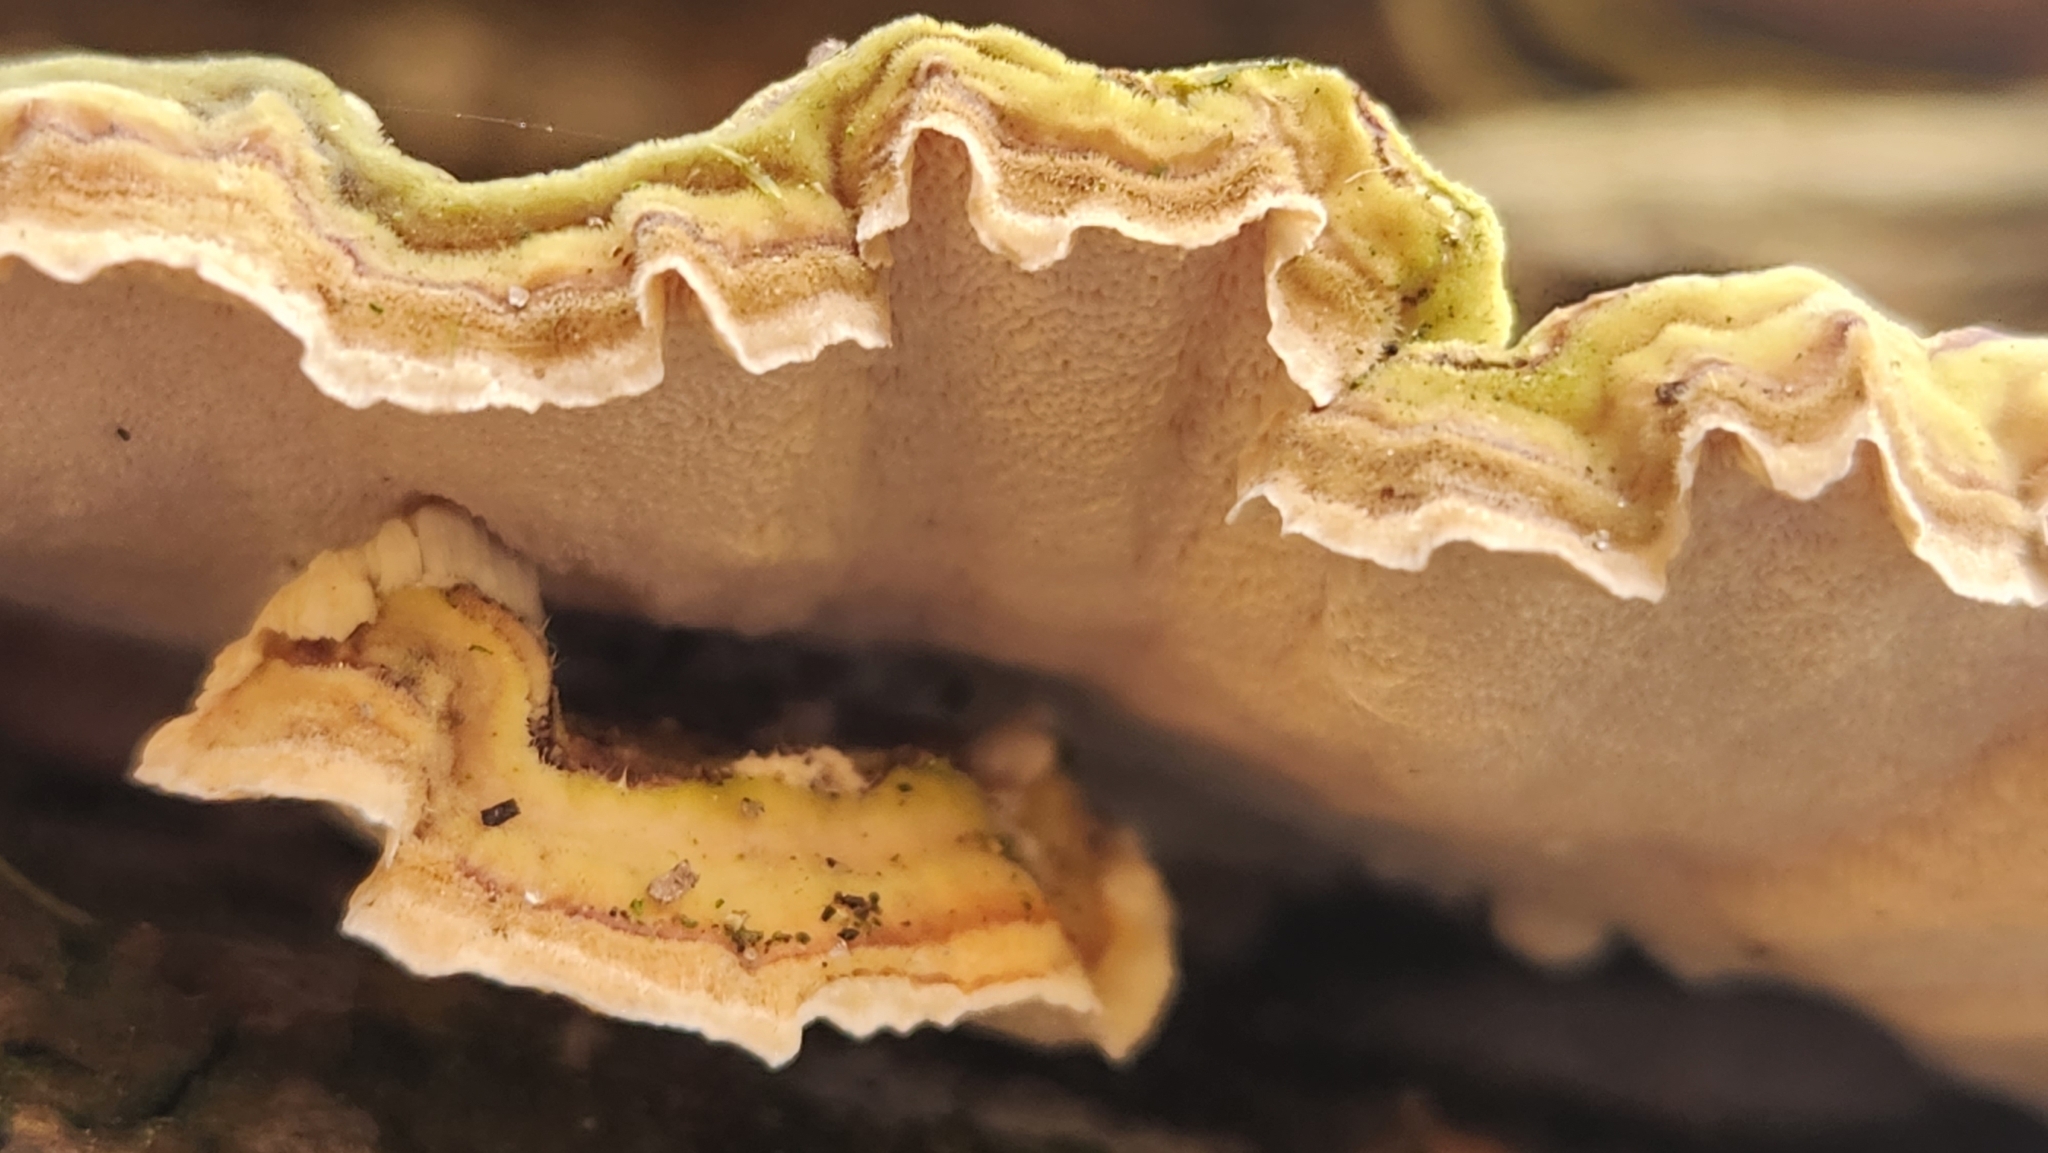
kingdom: Fungi
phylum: Basidiomycota
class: Agaricomycetes
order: Polyporales
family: Polyporaceae
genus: Trametes
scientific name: Trametes versicolor
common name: Turkeytail
